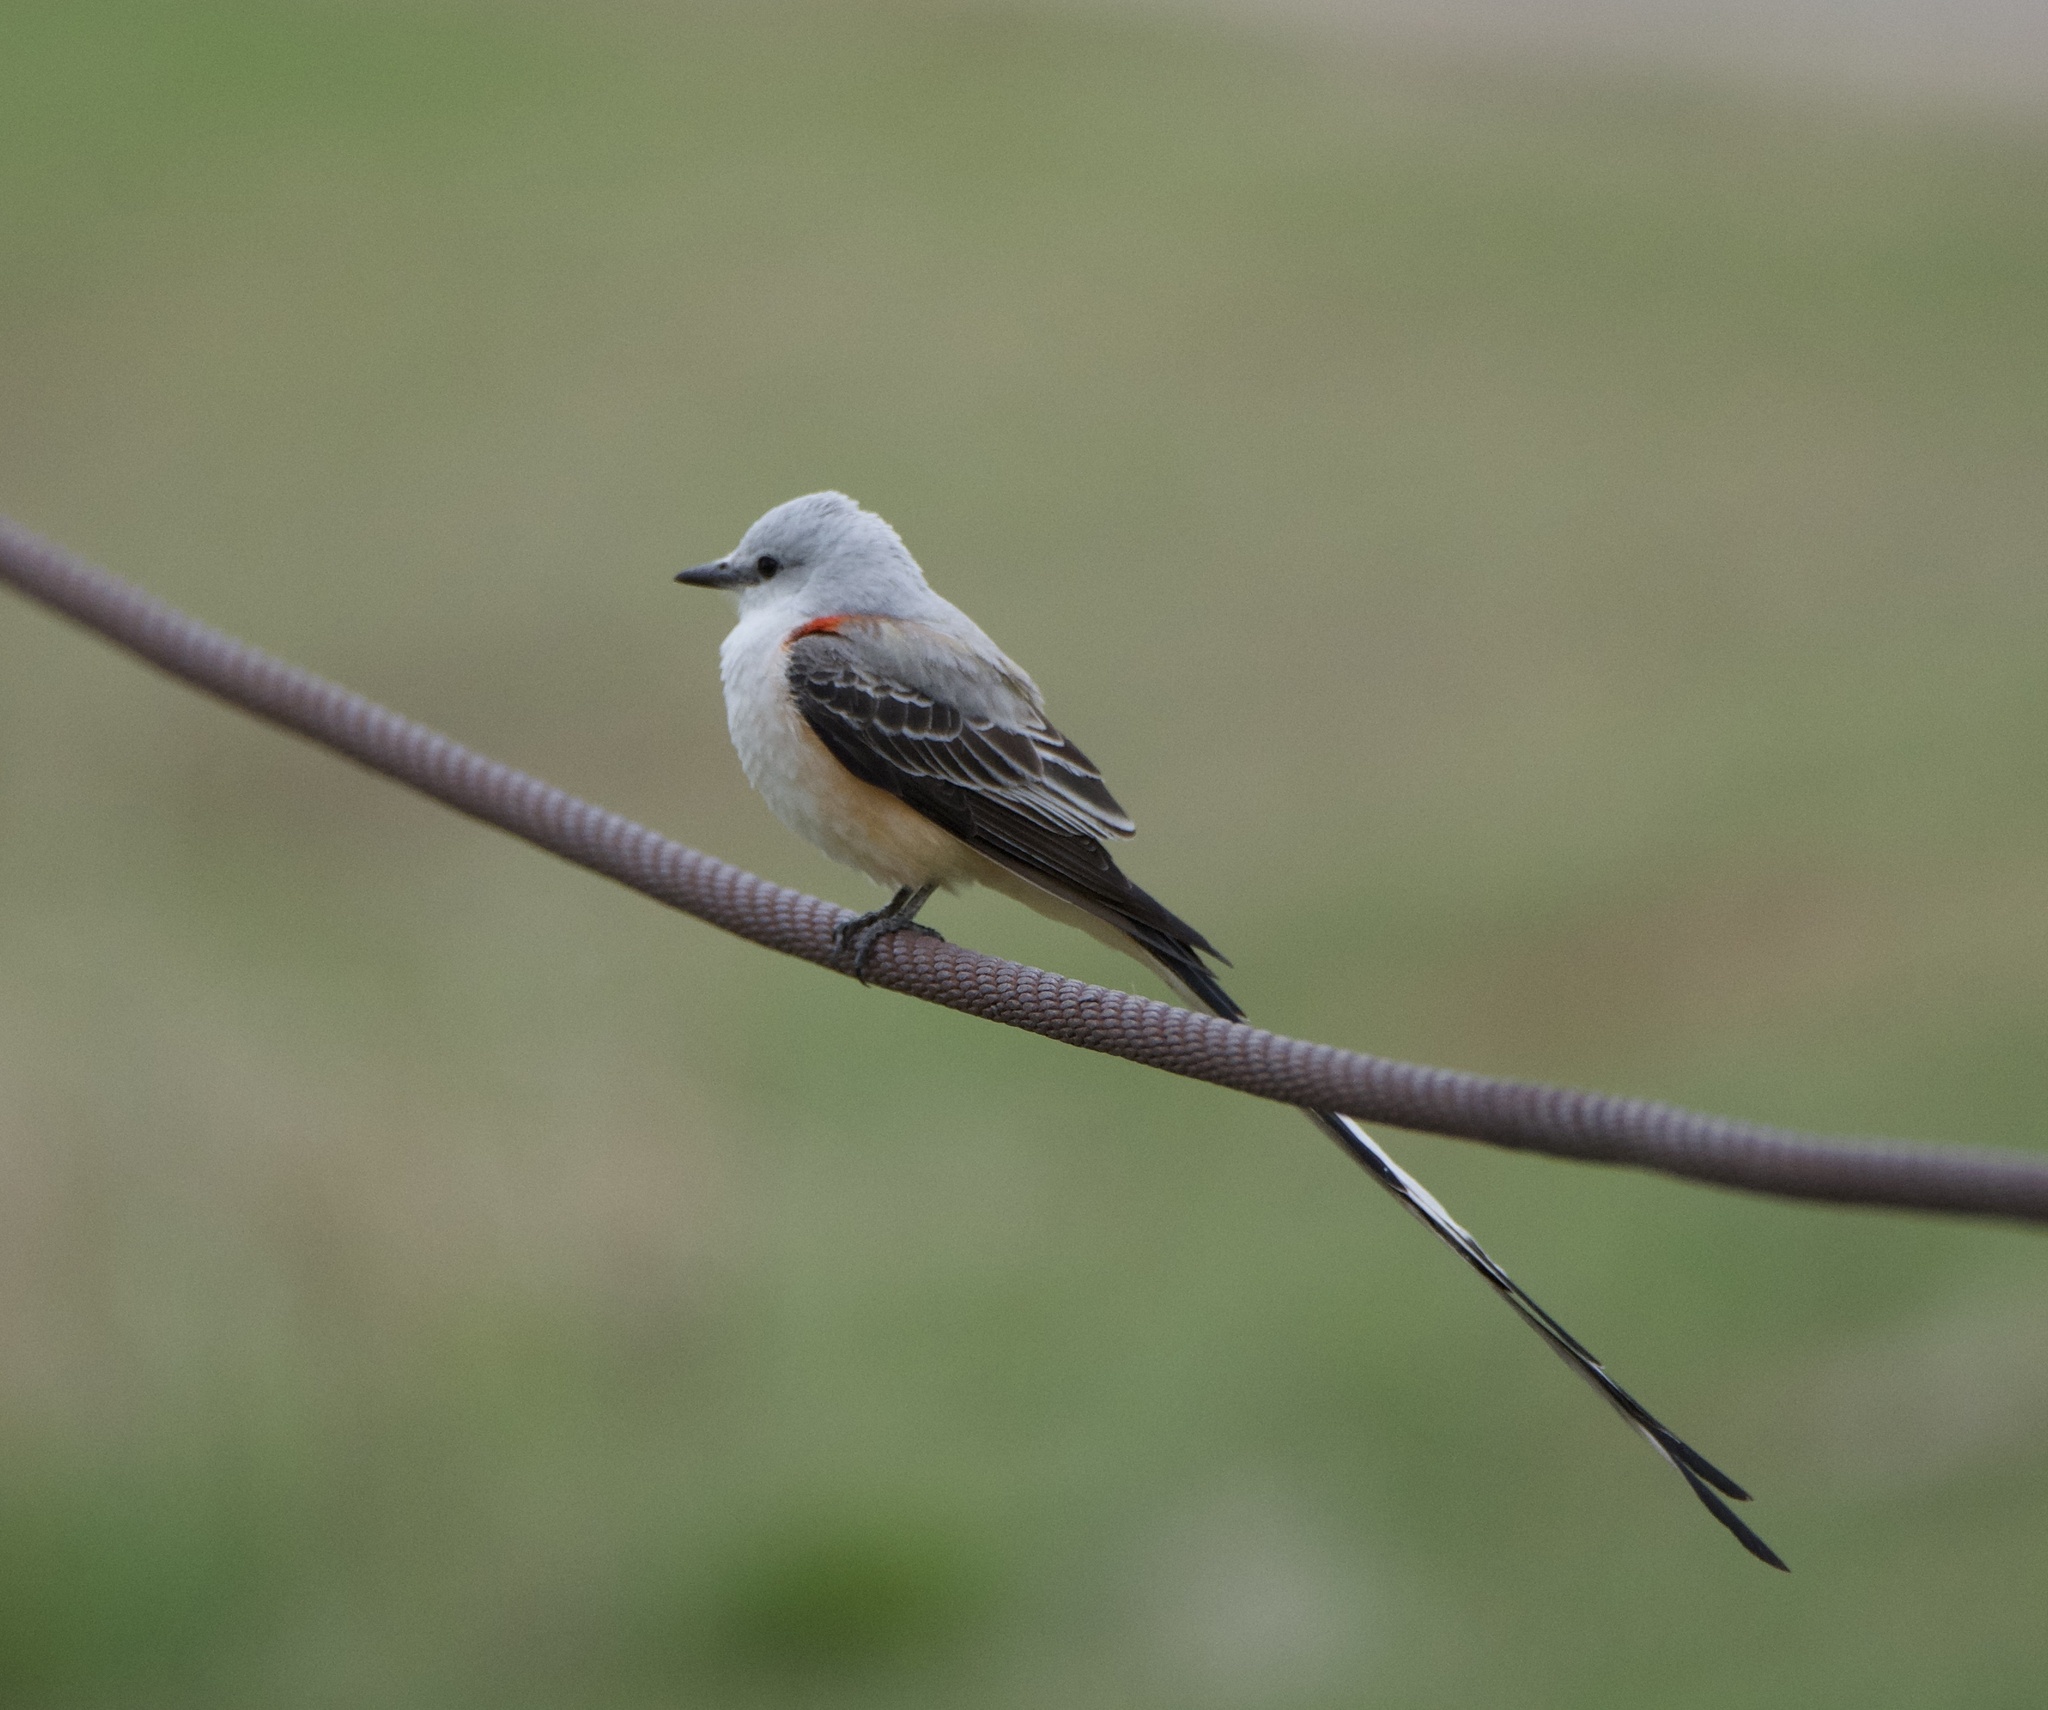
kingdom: Animalia
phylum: Chordata
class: Aves
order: Passeriformes
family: Tyrannidae
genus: Tyrannus
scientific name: Tyrannus forficatus
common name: Scissor-tailed flycatcher
